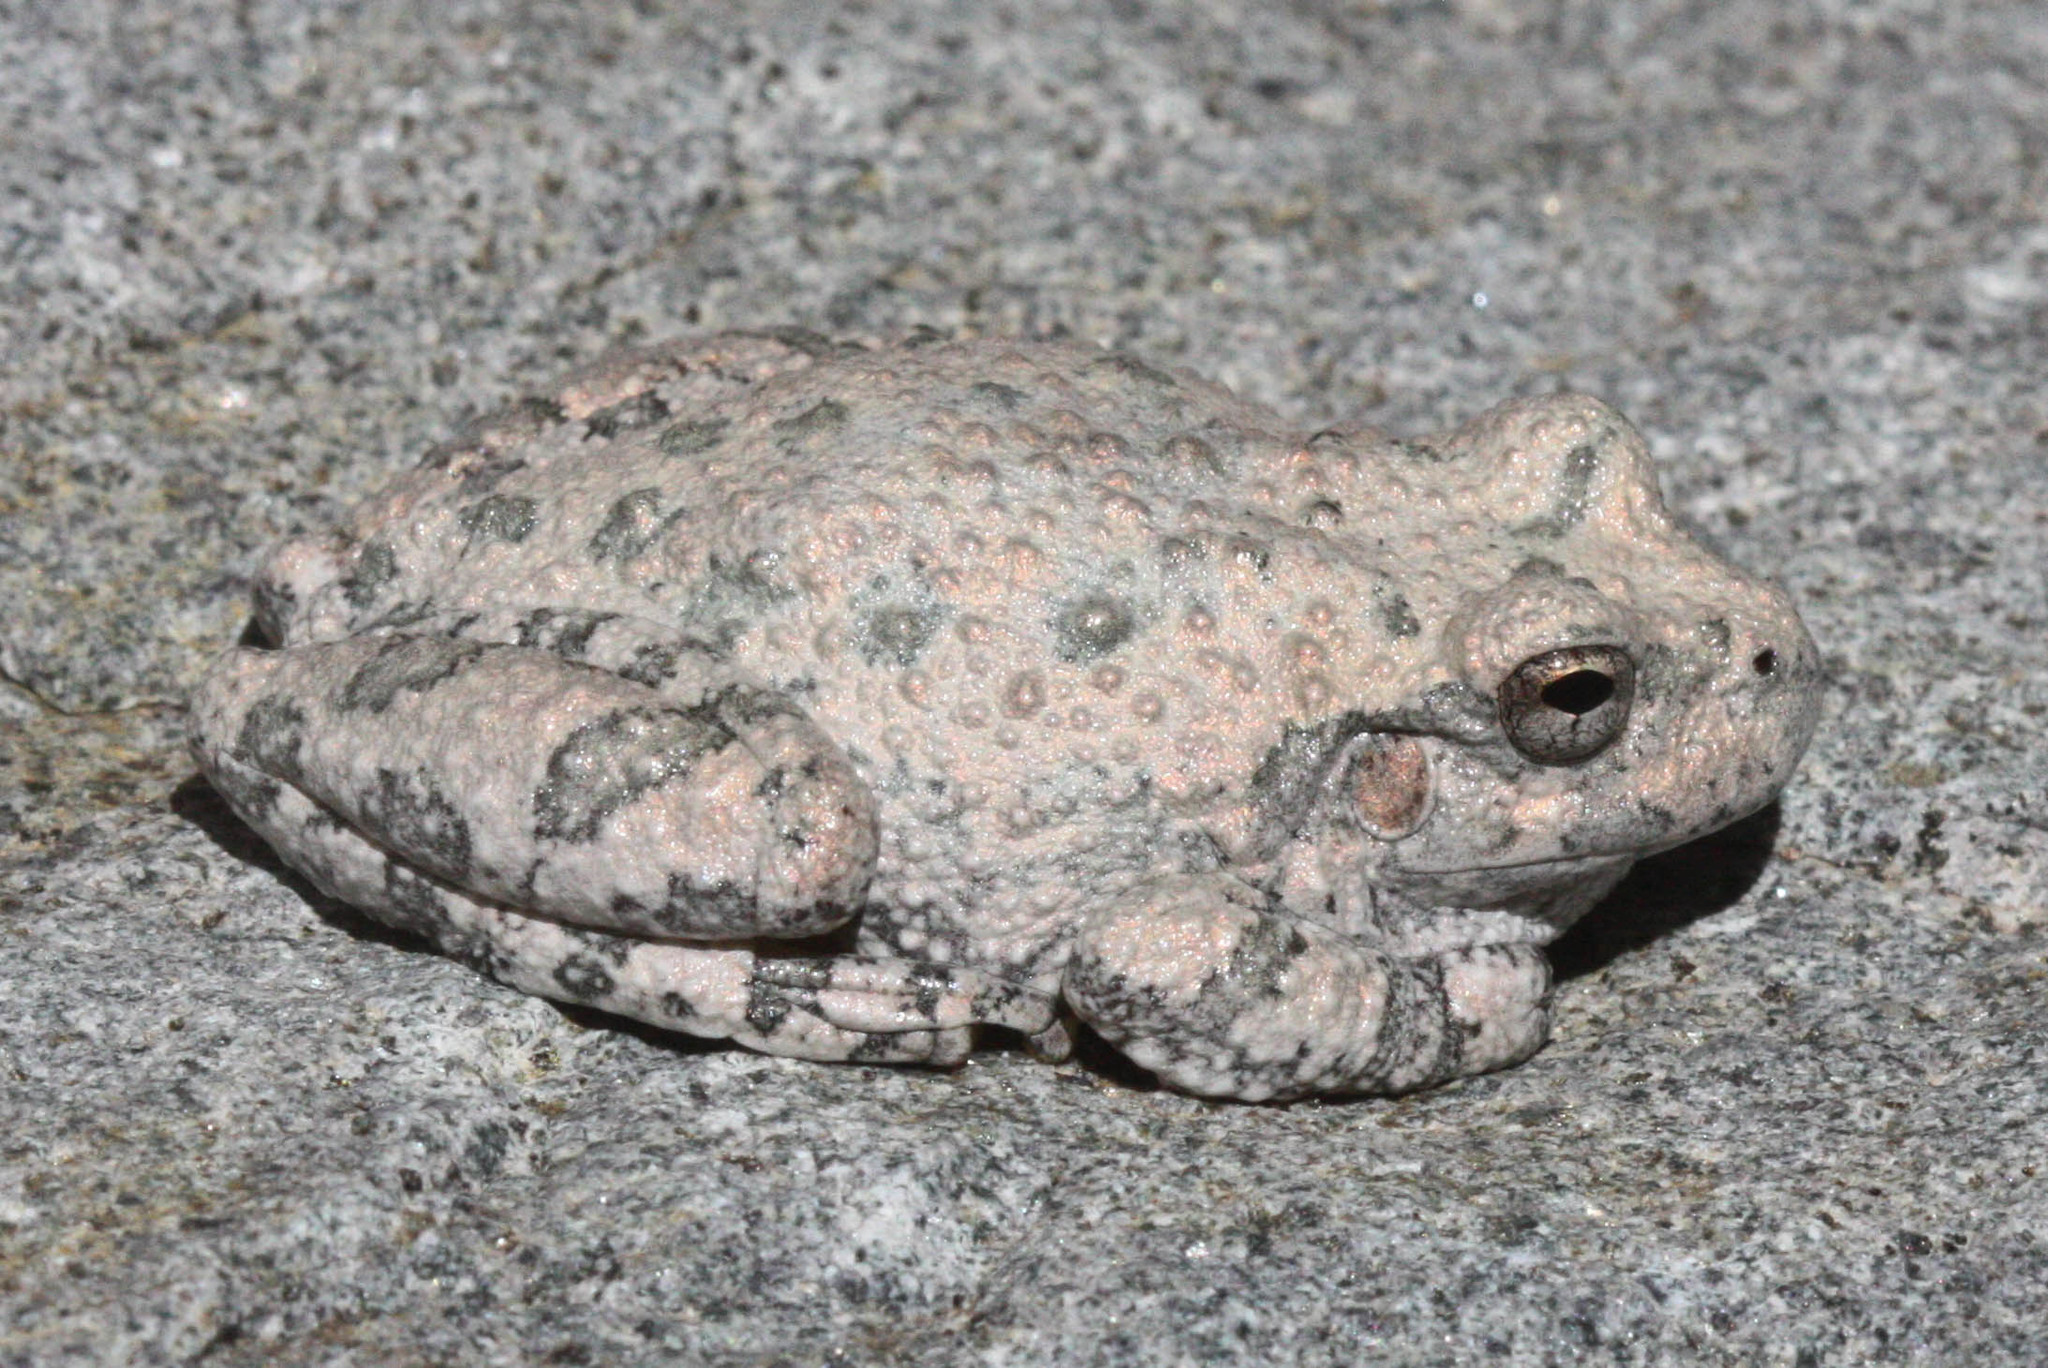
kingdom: Animalia
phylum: Chordata
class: Amphibia
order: Anura
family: Hylidae
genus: Dryophytes
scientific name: Dryophytes arenicolor
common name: Canyon treefrog
